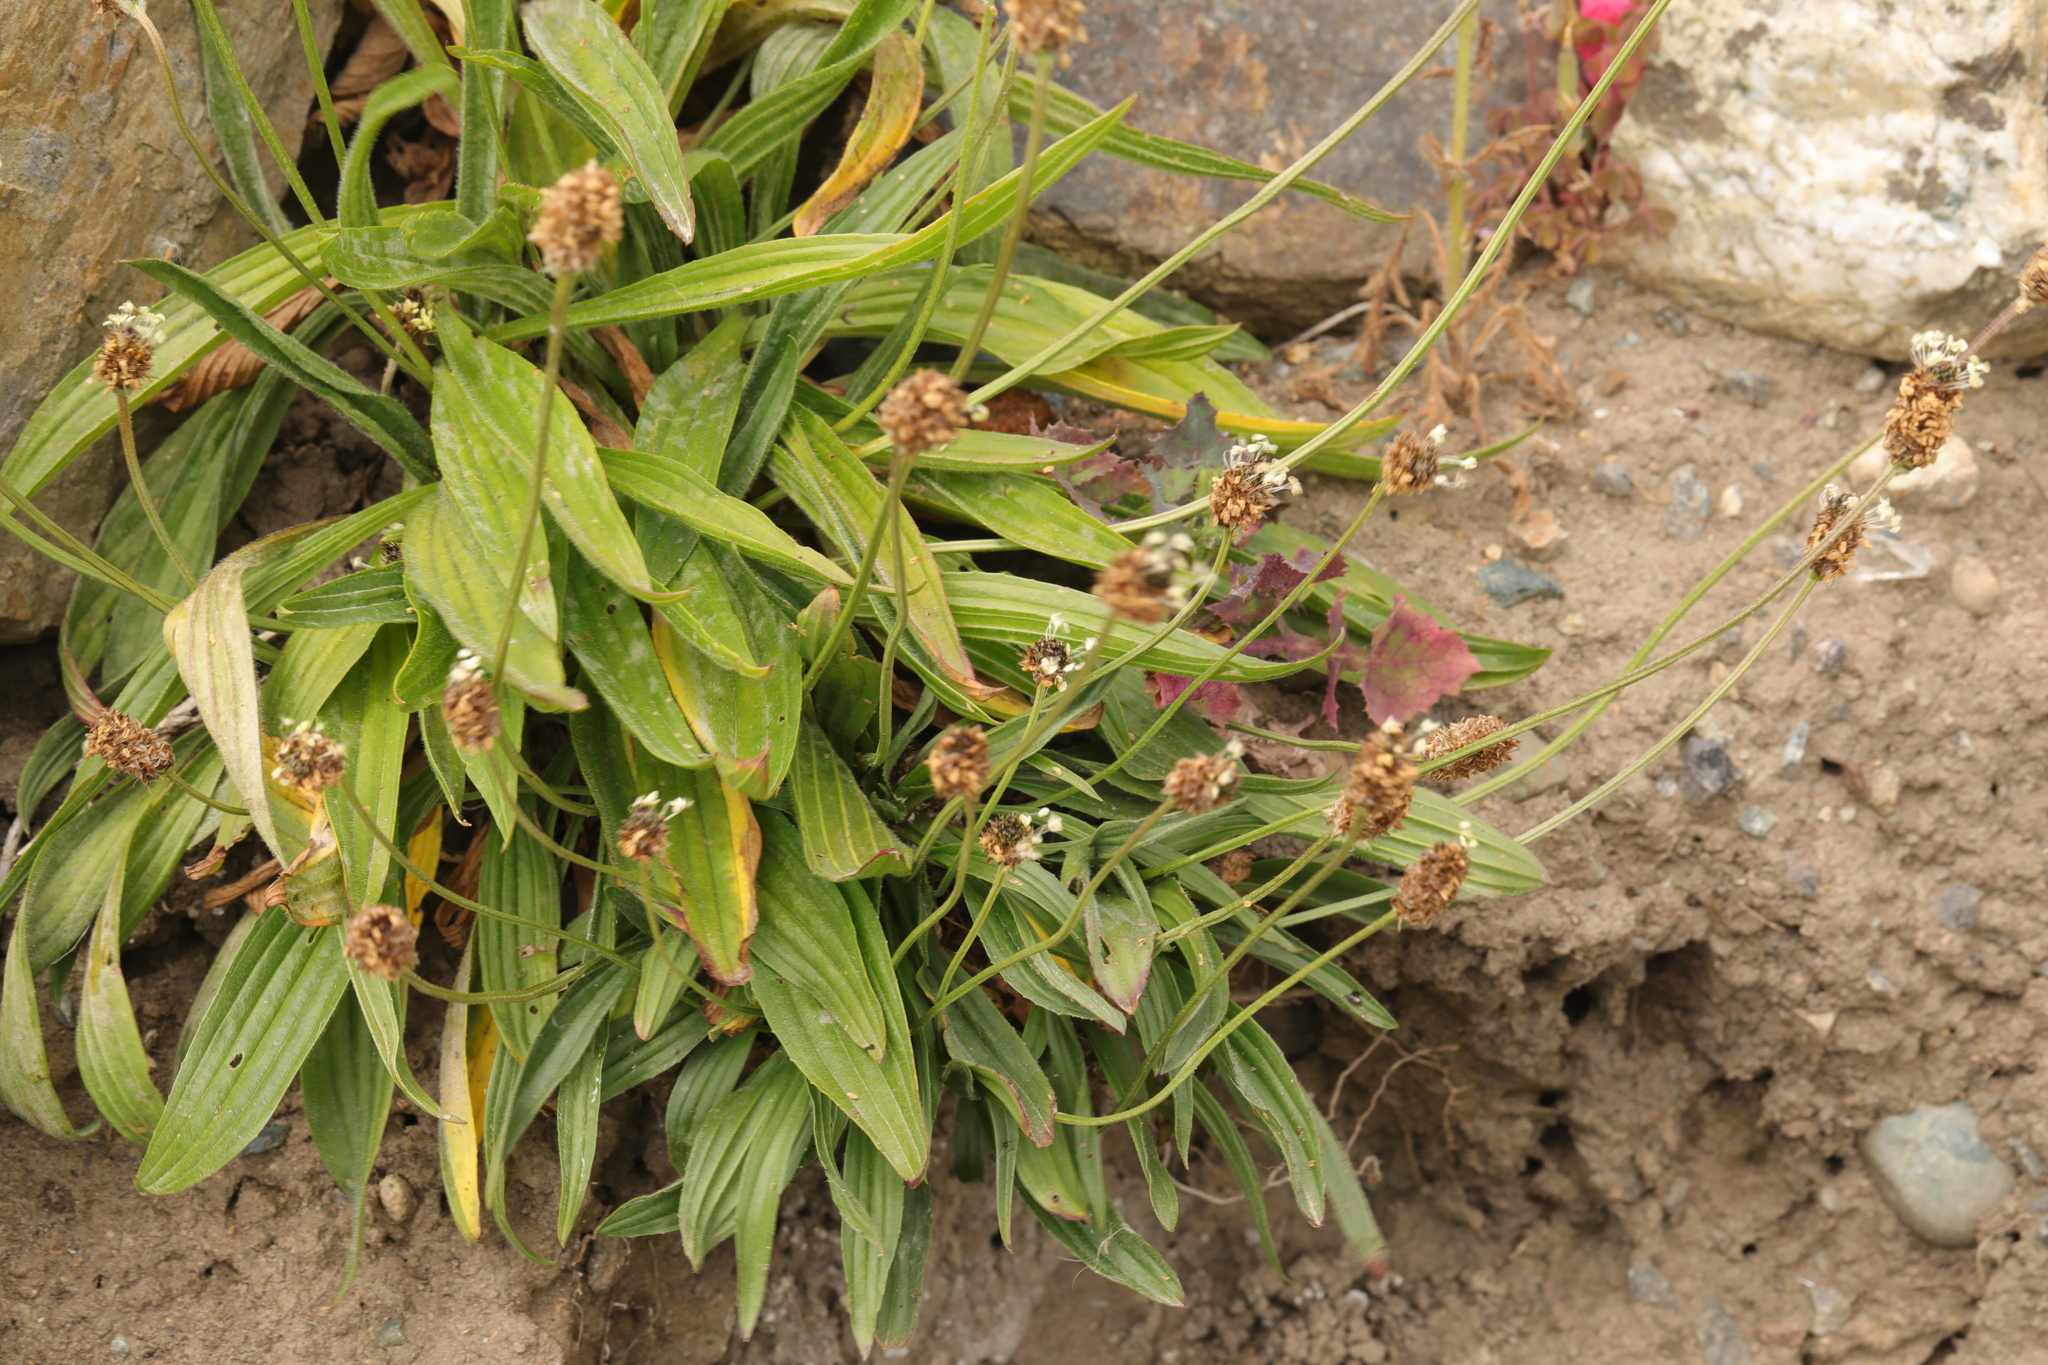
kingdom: Plantae
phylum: Tracheophyta
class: Magnoliopsida
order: Lamiales
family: Plantaginaceae
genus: Plantago
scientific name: Plantago lanceolata
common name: Ribwort plantain
